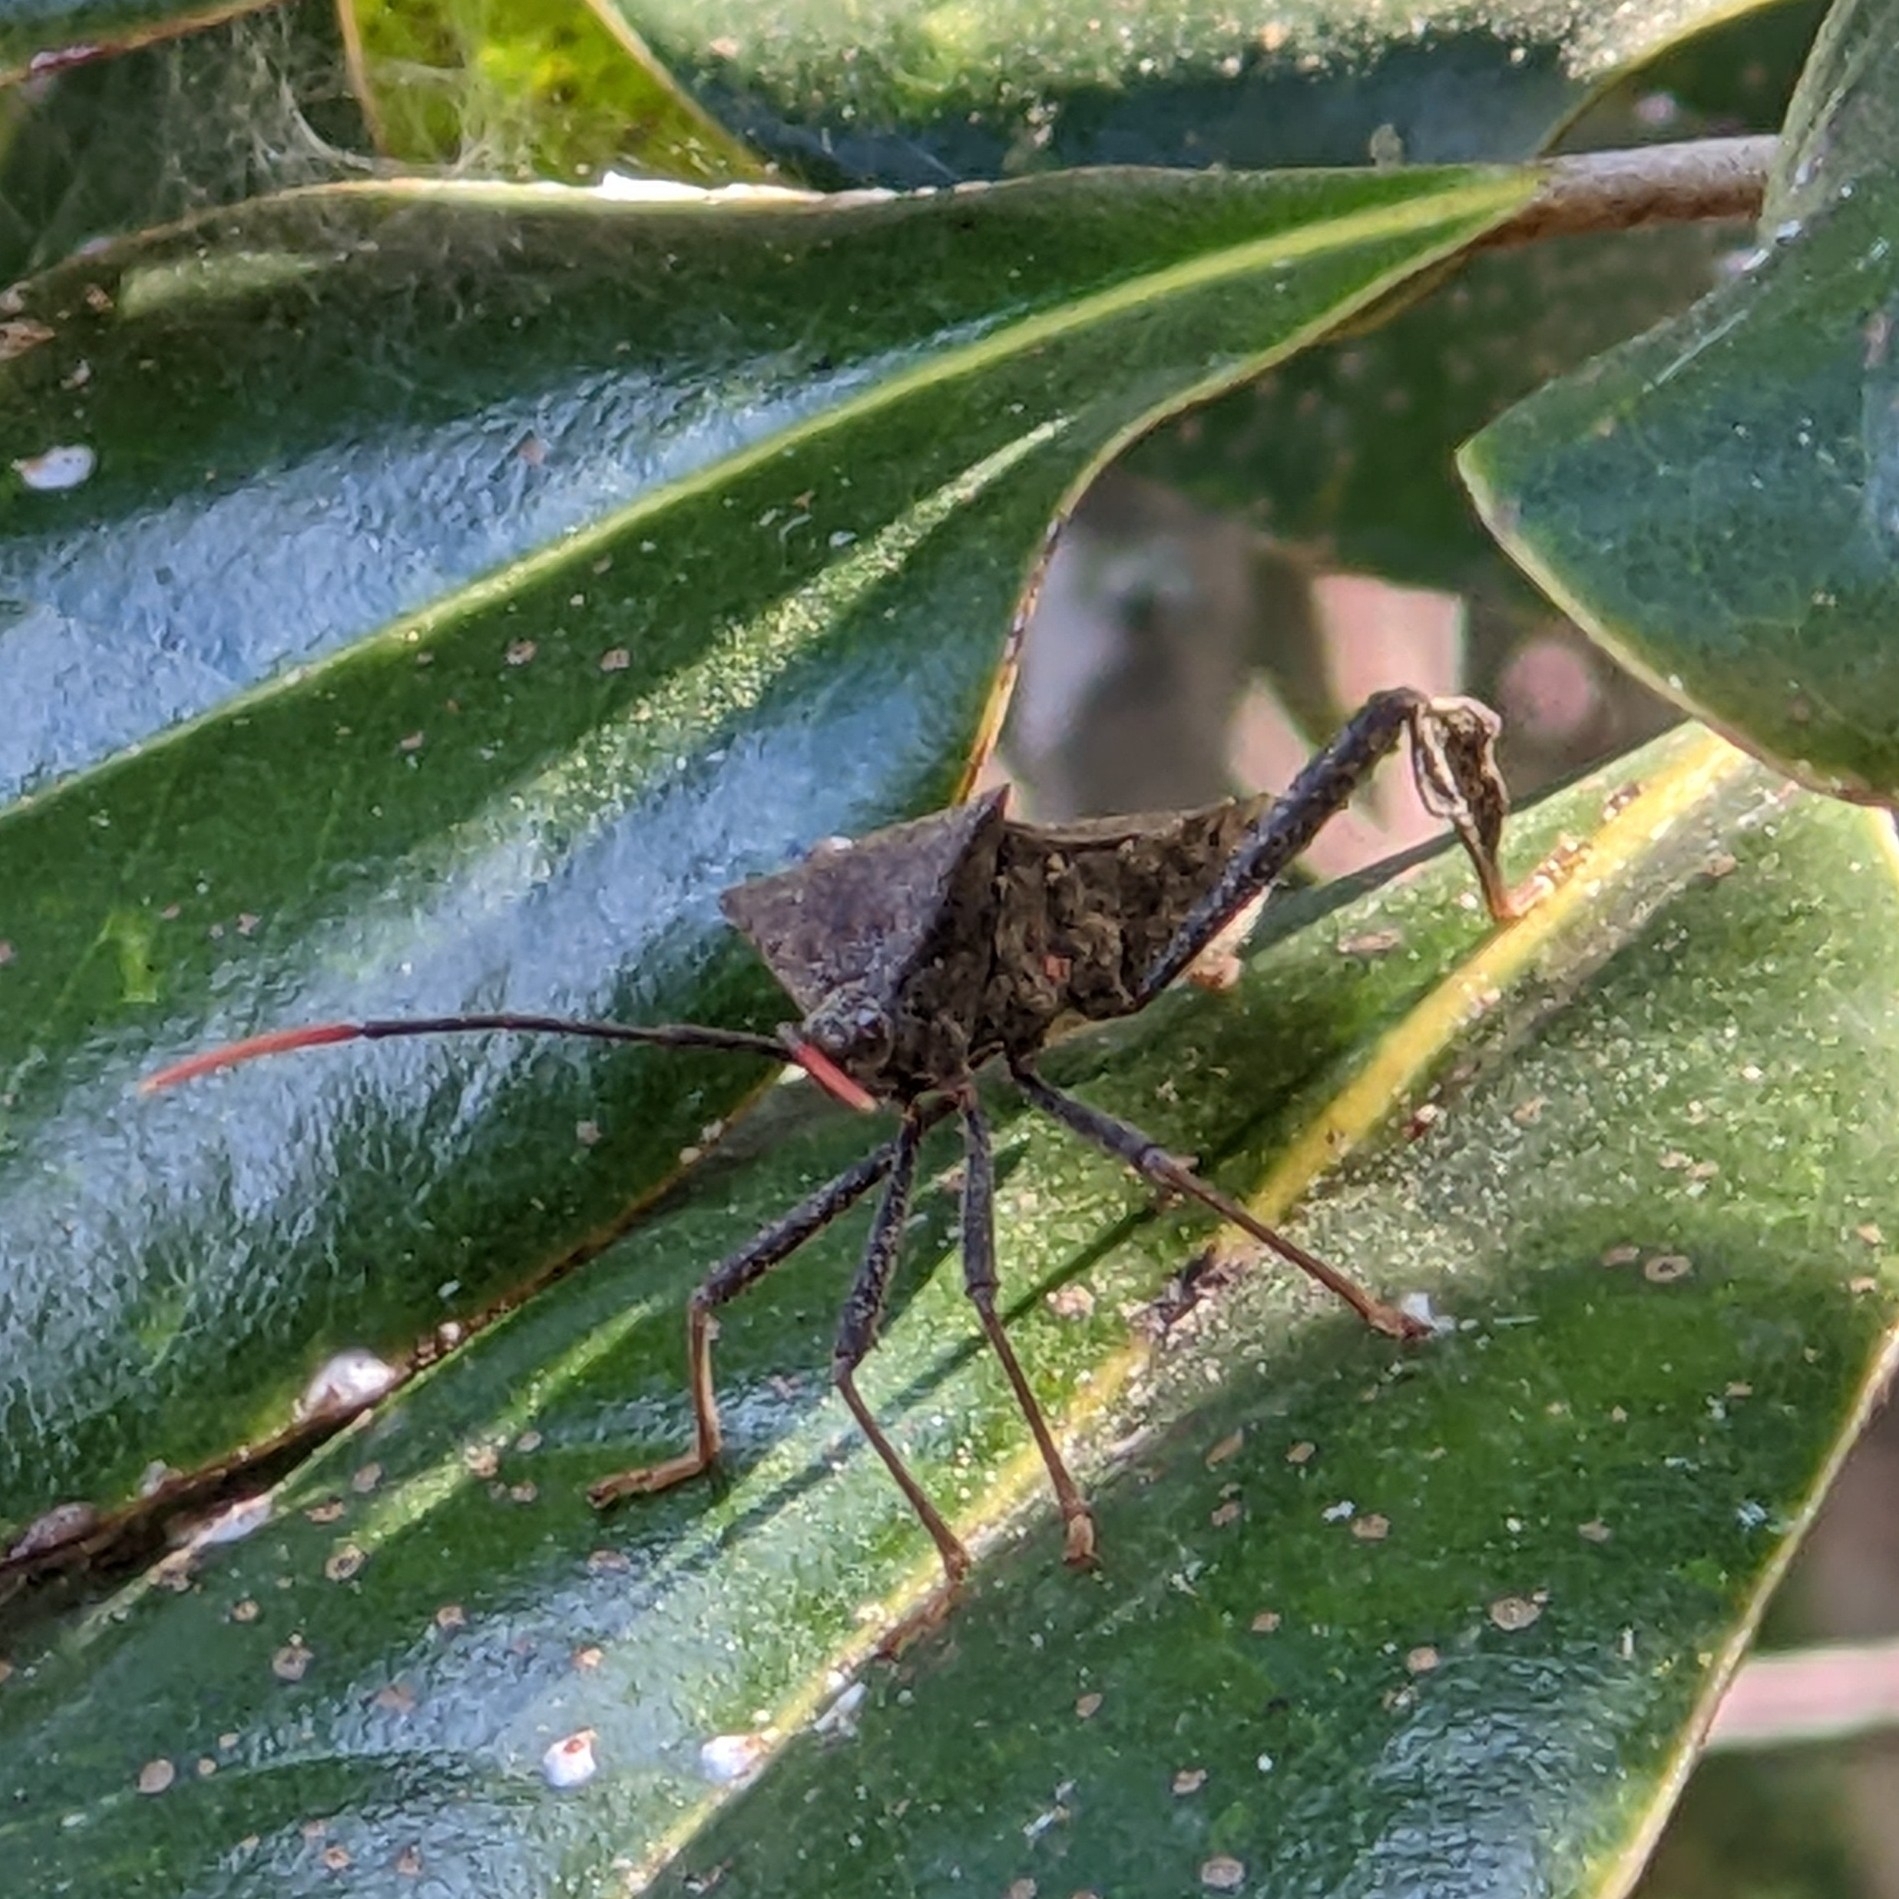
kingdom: Animalia
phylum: Arthropoda
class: Insecta
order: Hemiptera
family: Coreidae
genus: Acanthocephala
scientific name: Acanthocephala terminalis
